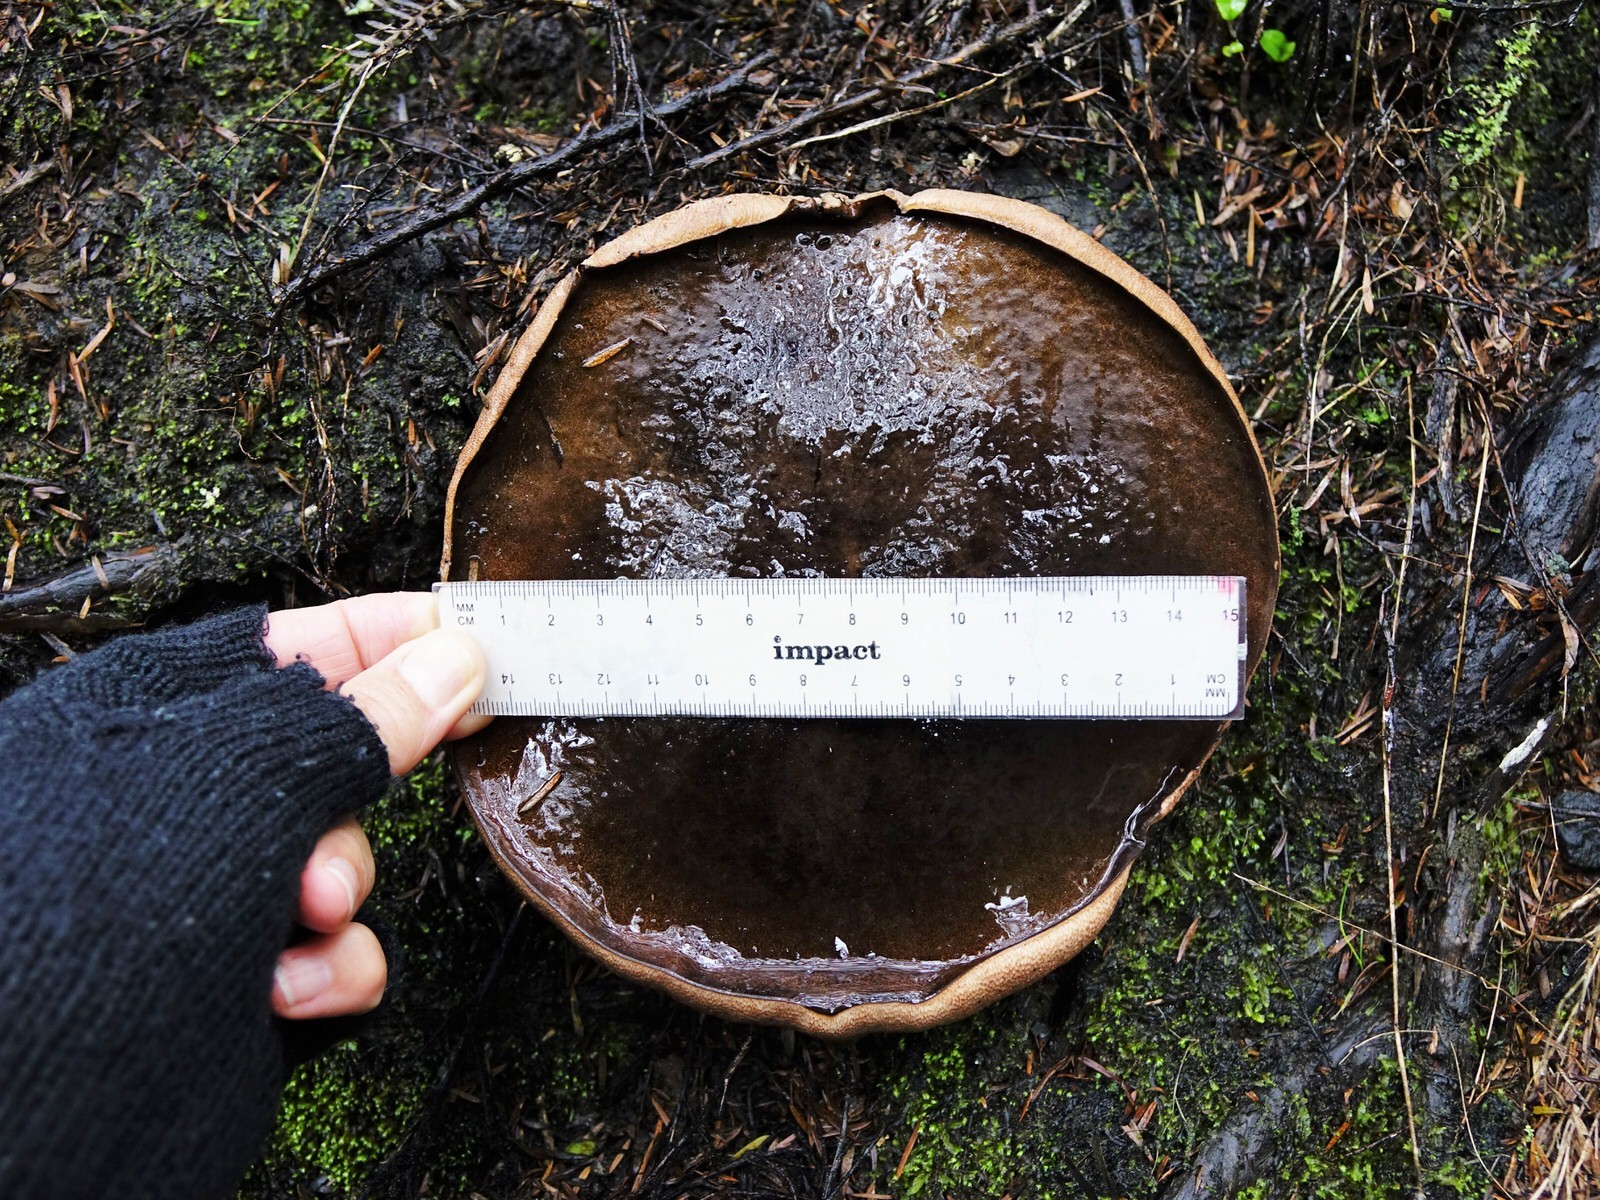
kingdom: Fungi
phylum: Basidiomycota
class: Agaricomycetes
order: Boletales
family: Boletaceae
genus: Porphyrellus
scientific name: Porphyrellus formosus
